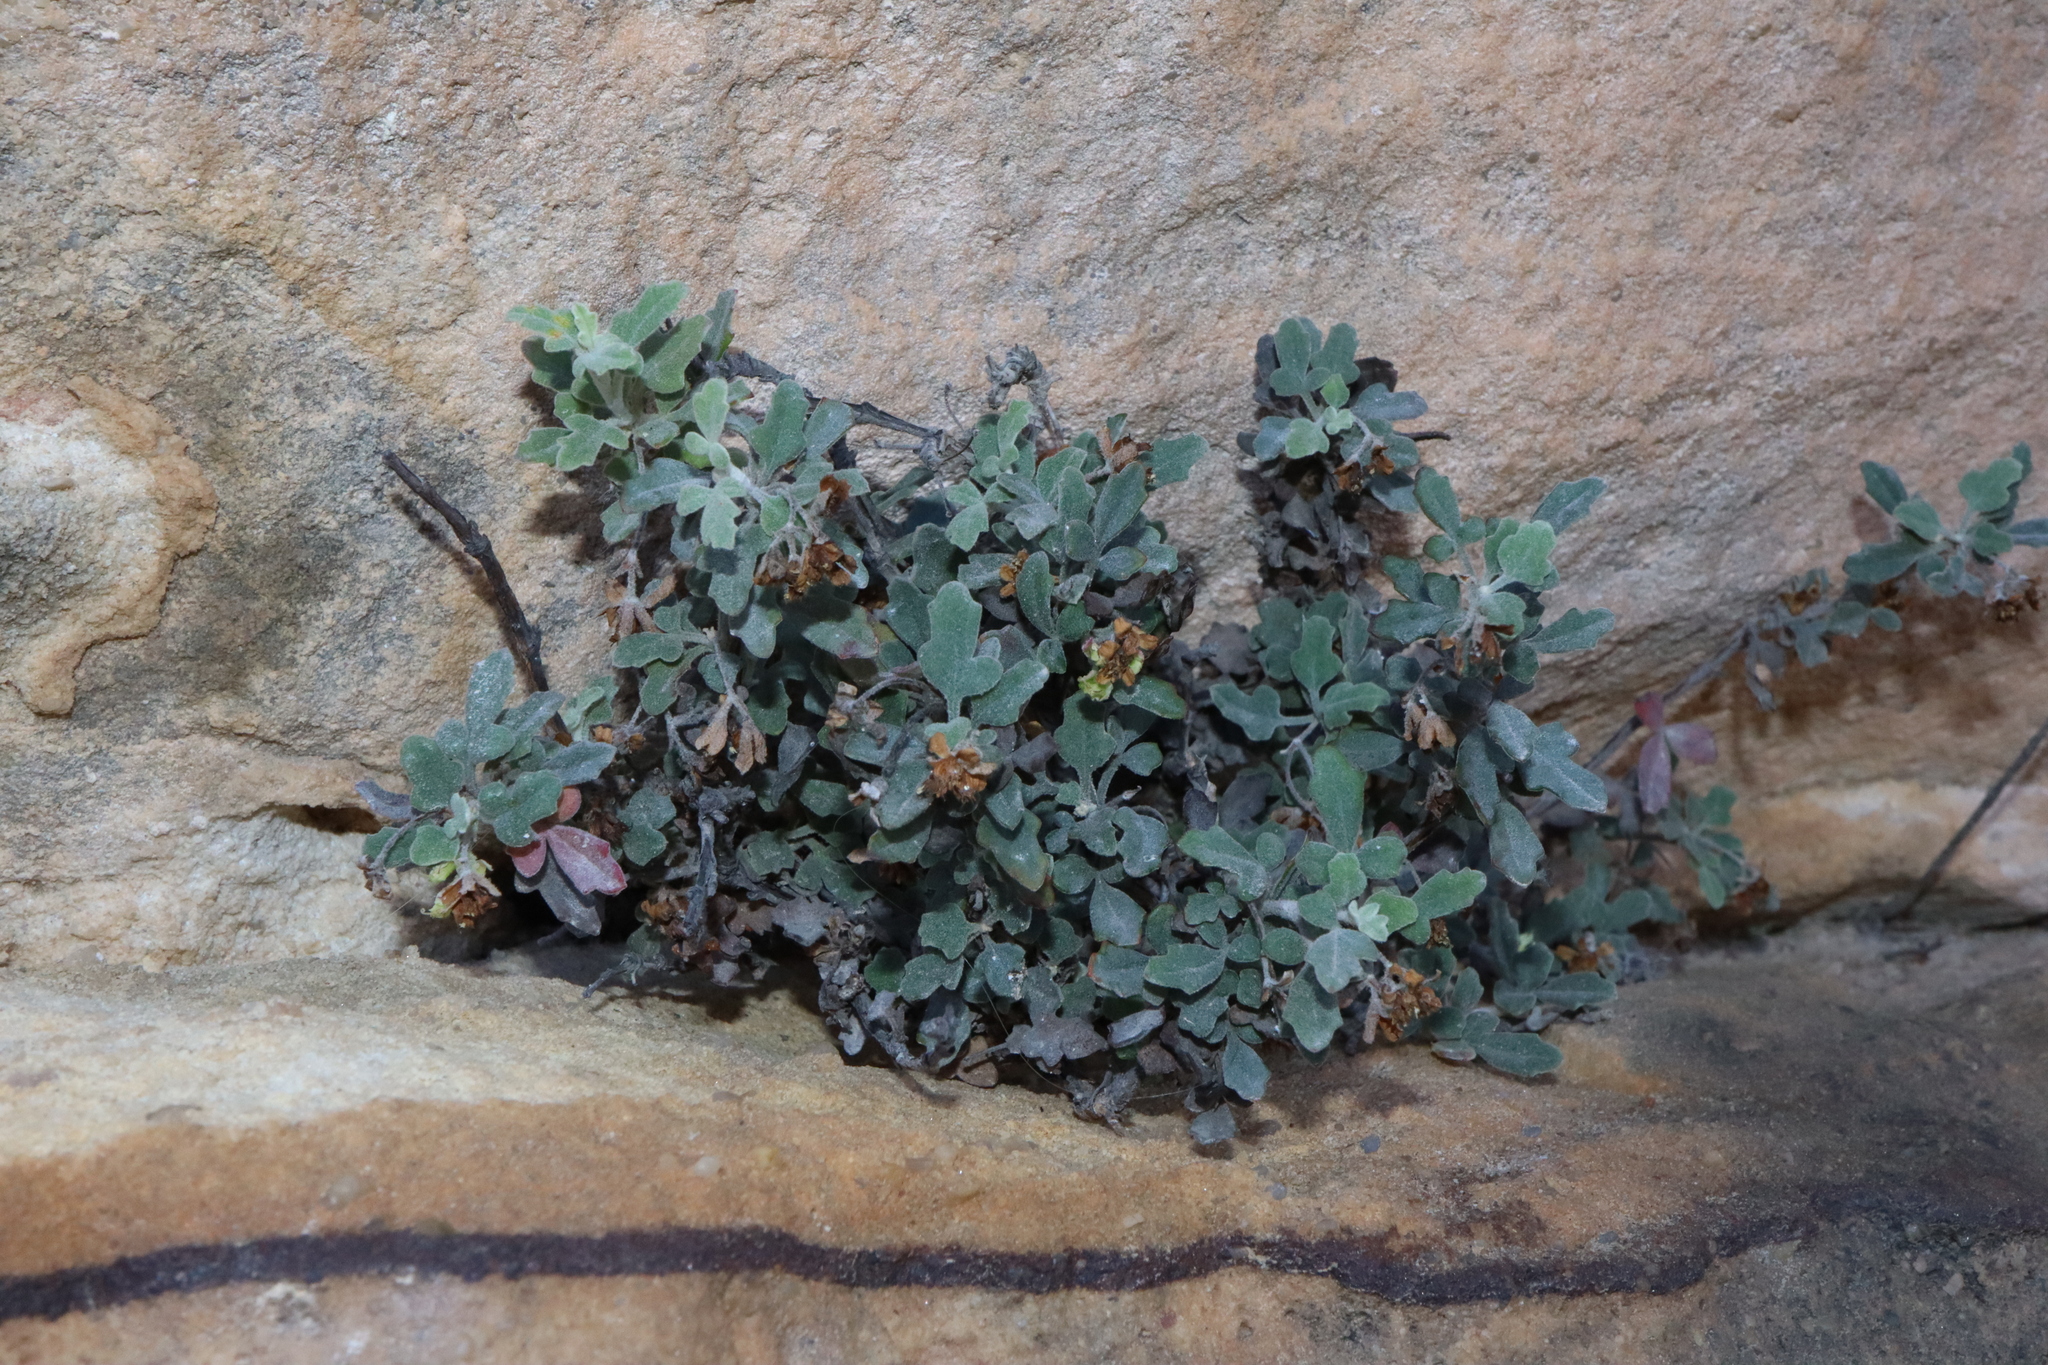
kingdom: Plantae
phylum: Tracheophyta
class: Magnoliopsida
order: Apiales
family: Apiaceae
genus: Xanthosia
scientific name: Xanthosia scopulicola
